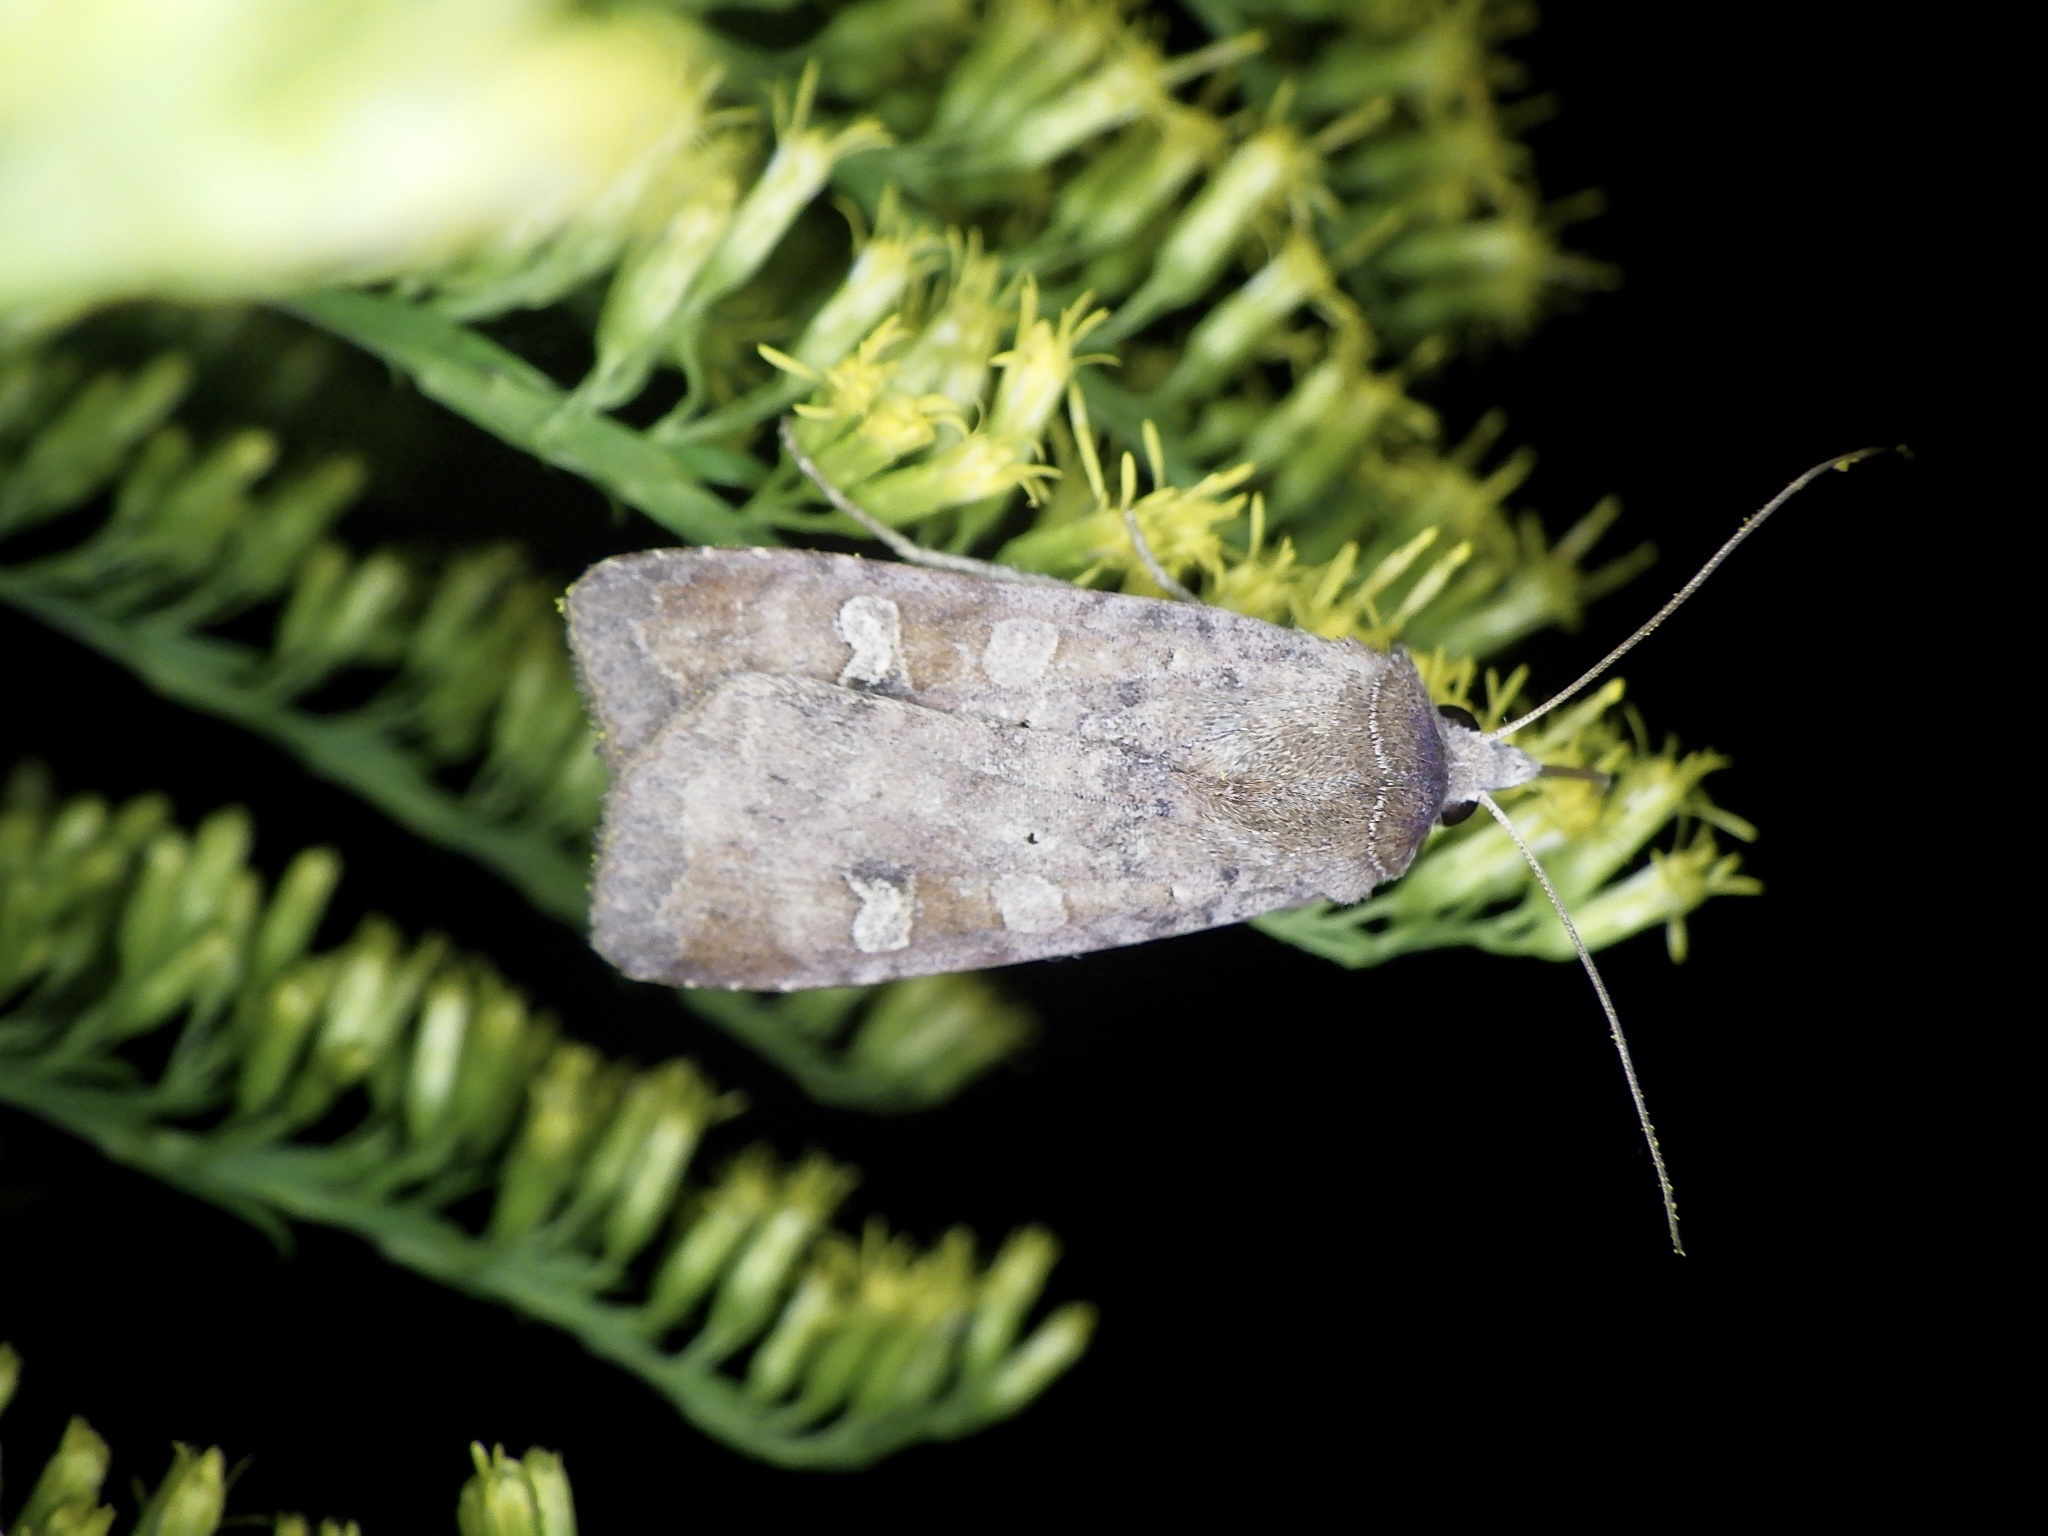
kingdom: Animalia
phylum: Arthropoda
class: Insecta
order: Lepidoptera
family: Noctuidae
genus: Diarsia
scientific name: Diarsia canescens
